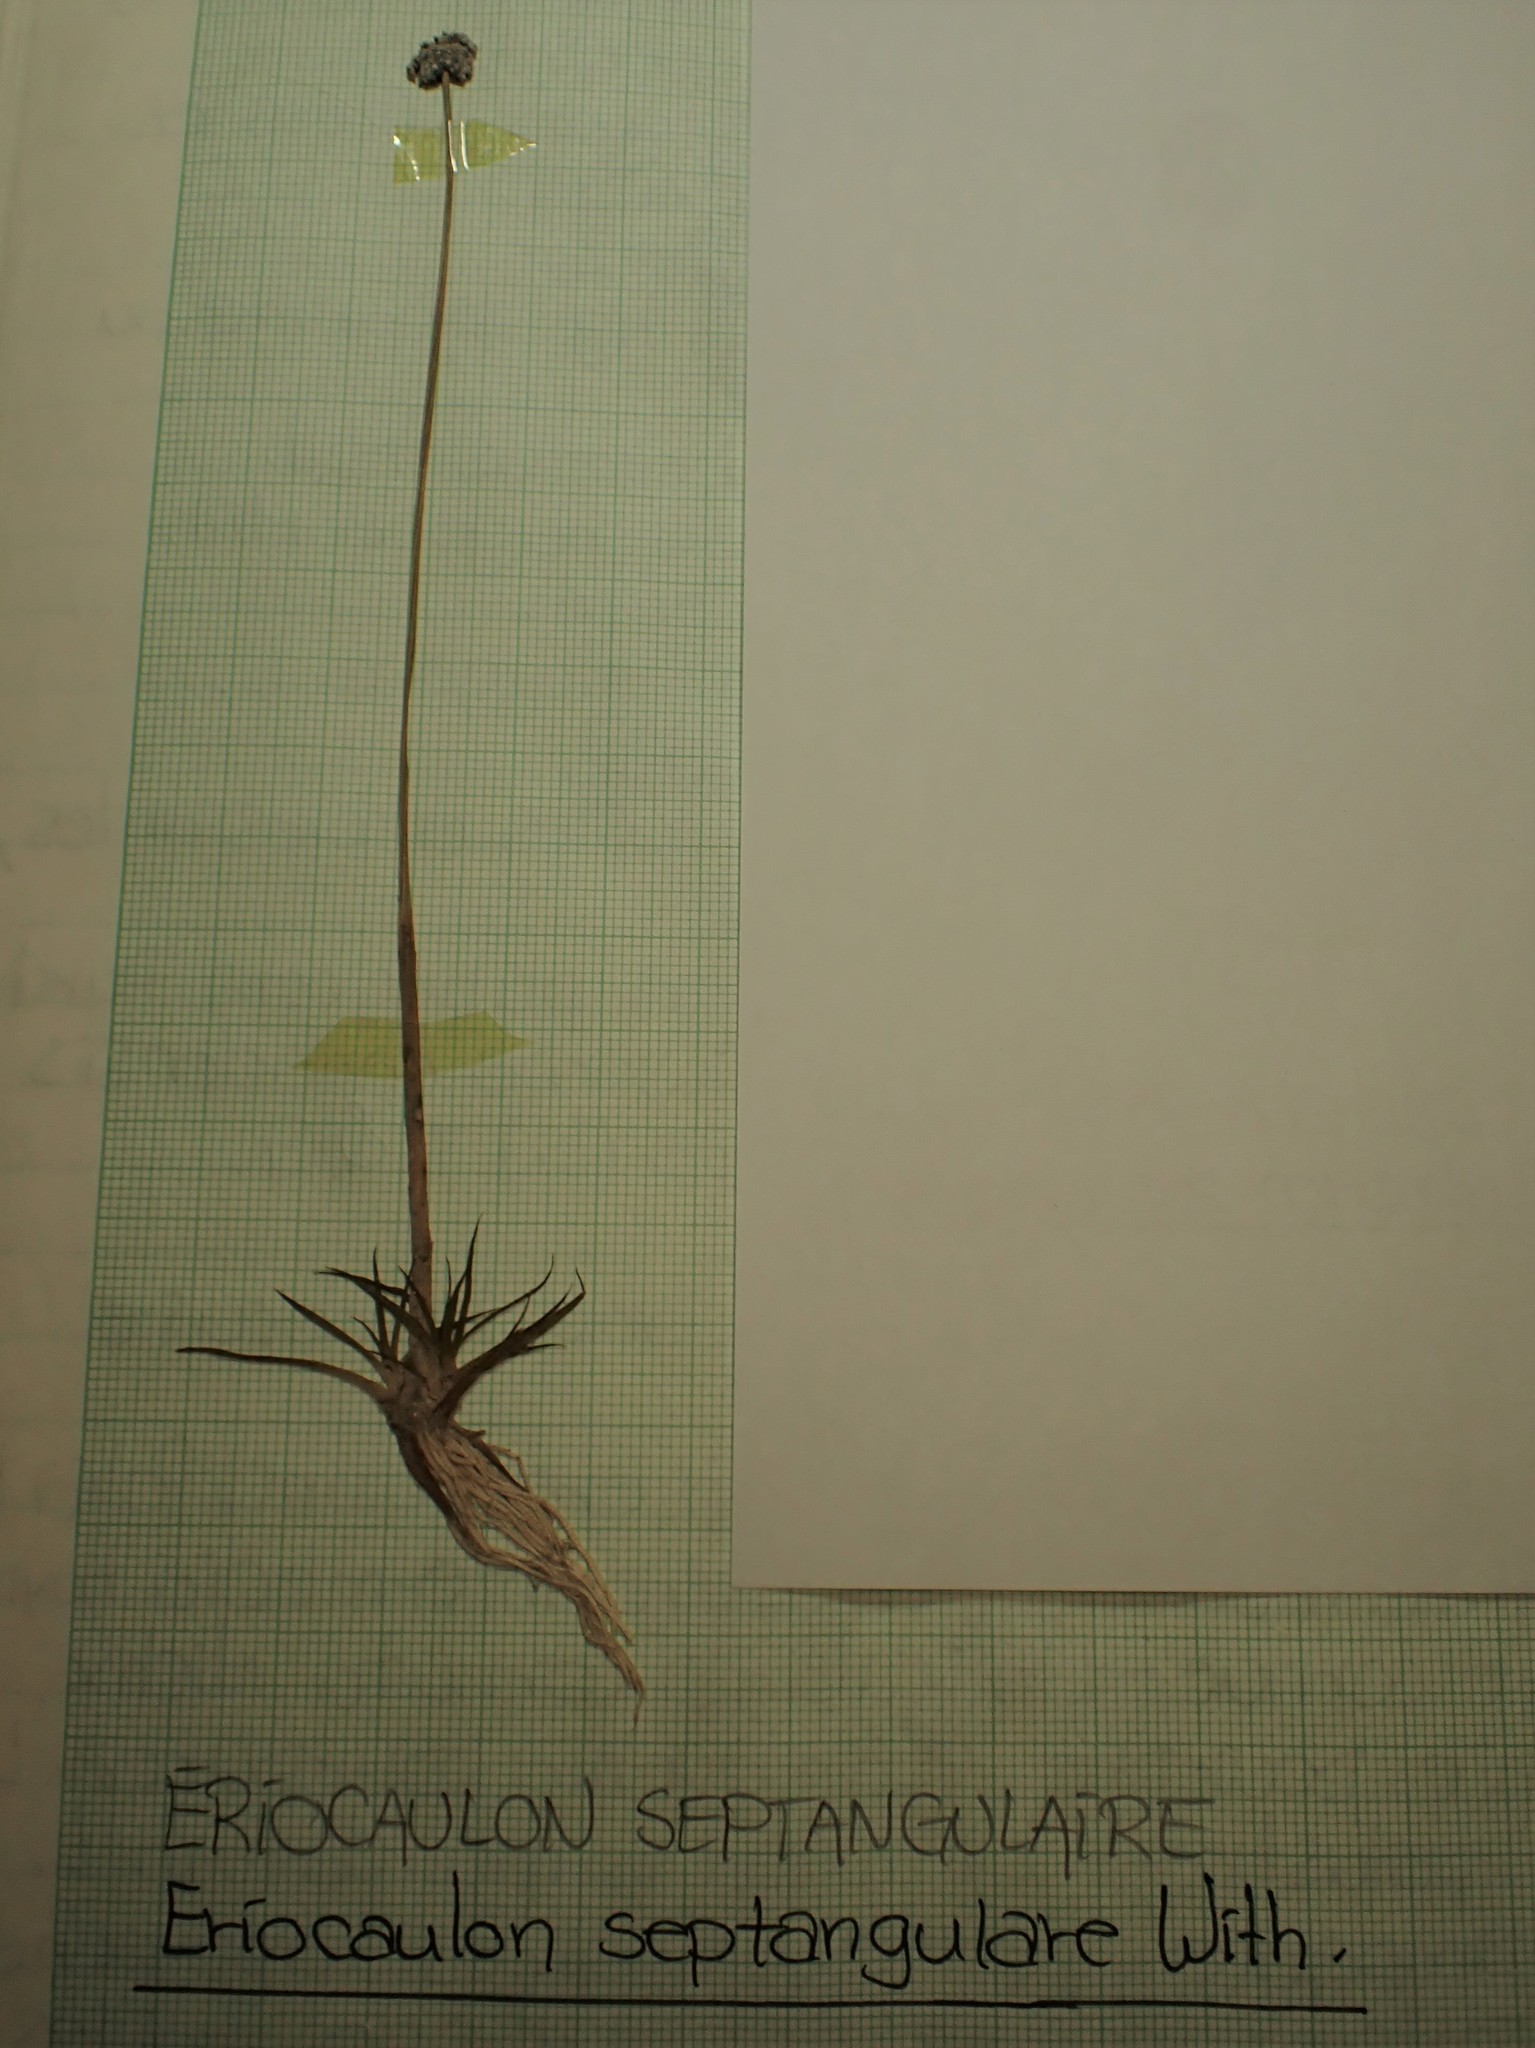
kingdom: Plantae
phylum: Tracheophyta
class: Liliopsida
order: Poales
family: Eriocaulaceae
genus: Eriocaulon
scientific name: Eriocaulon aquaticum
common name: Pipewort
